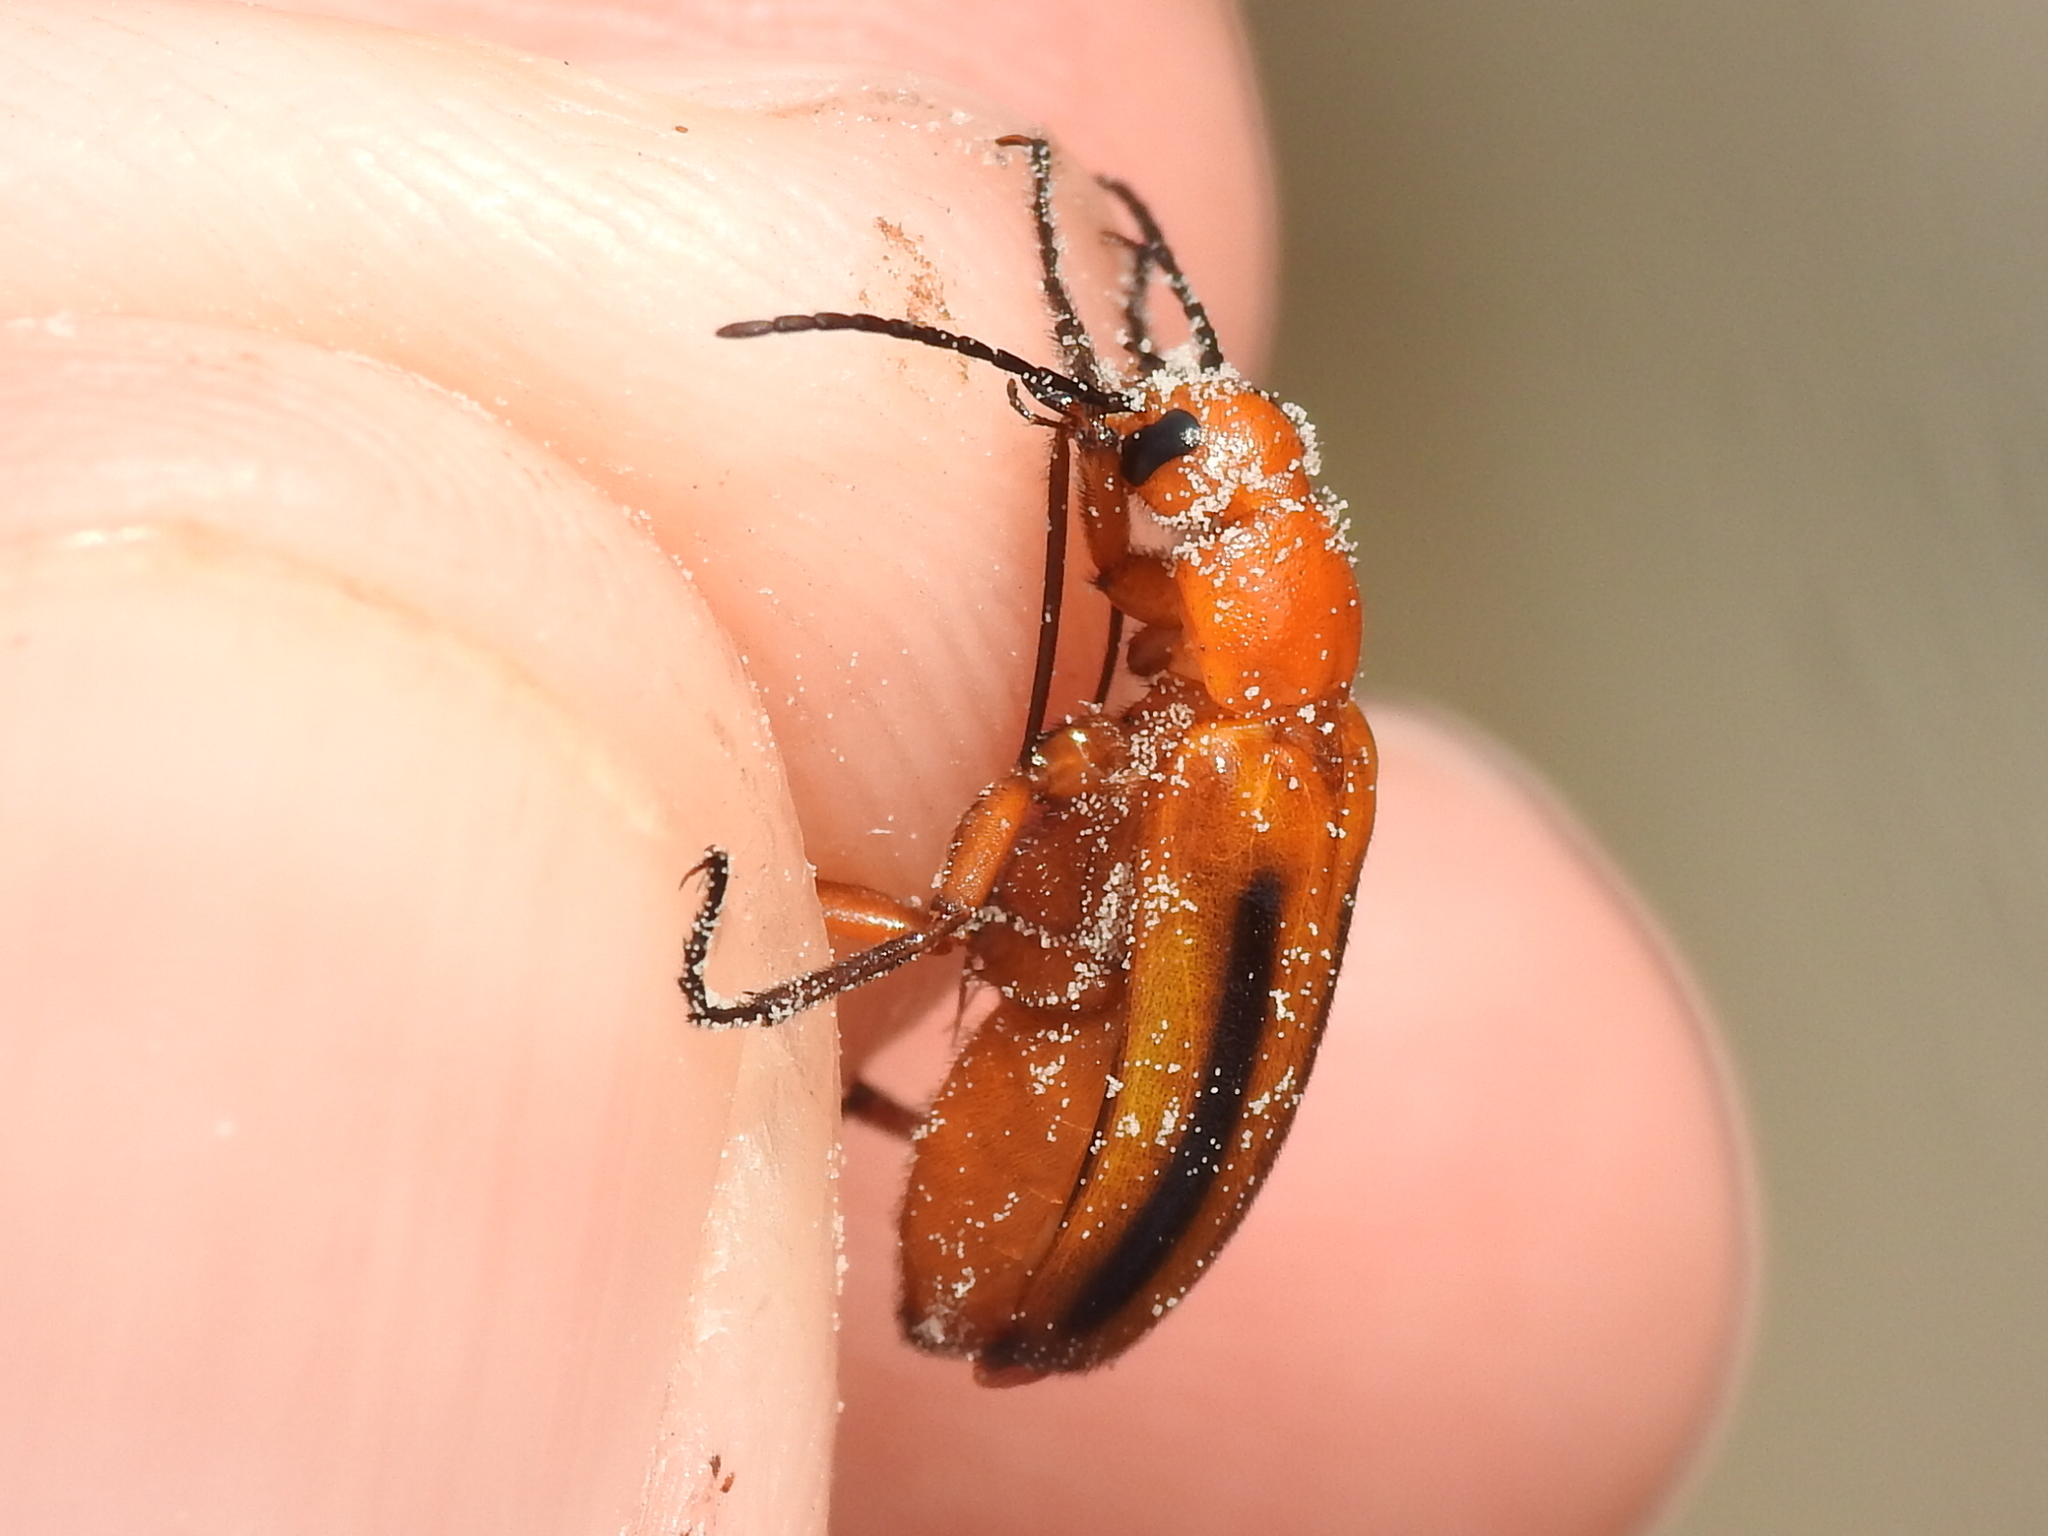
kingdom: Animalia
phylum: Arthropoda
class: Insecta
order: Coleoptera
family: Meloidae
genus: Nemognatha
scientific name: Nemognatha piazata
